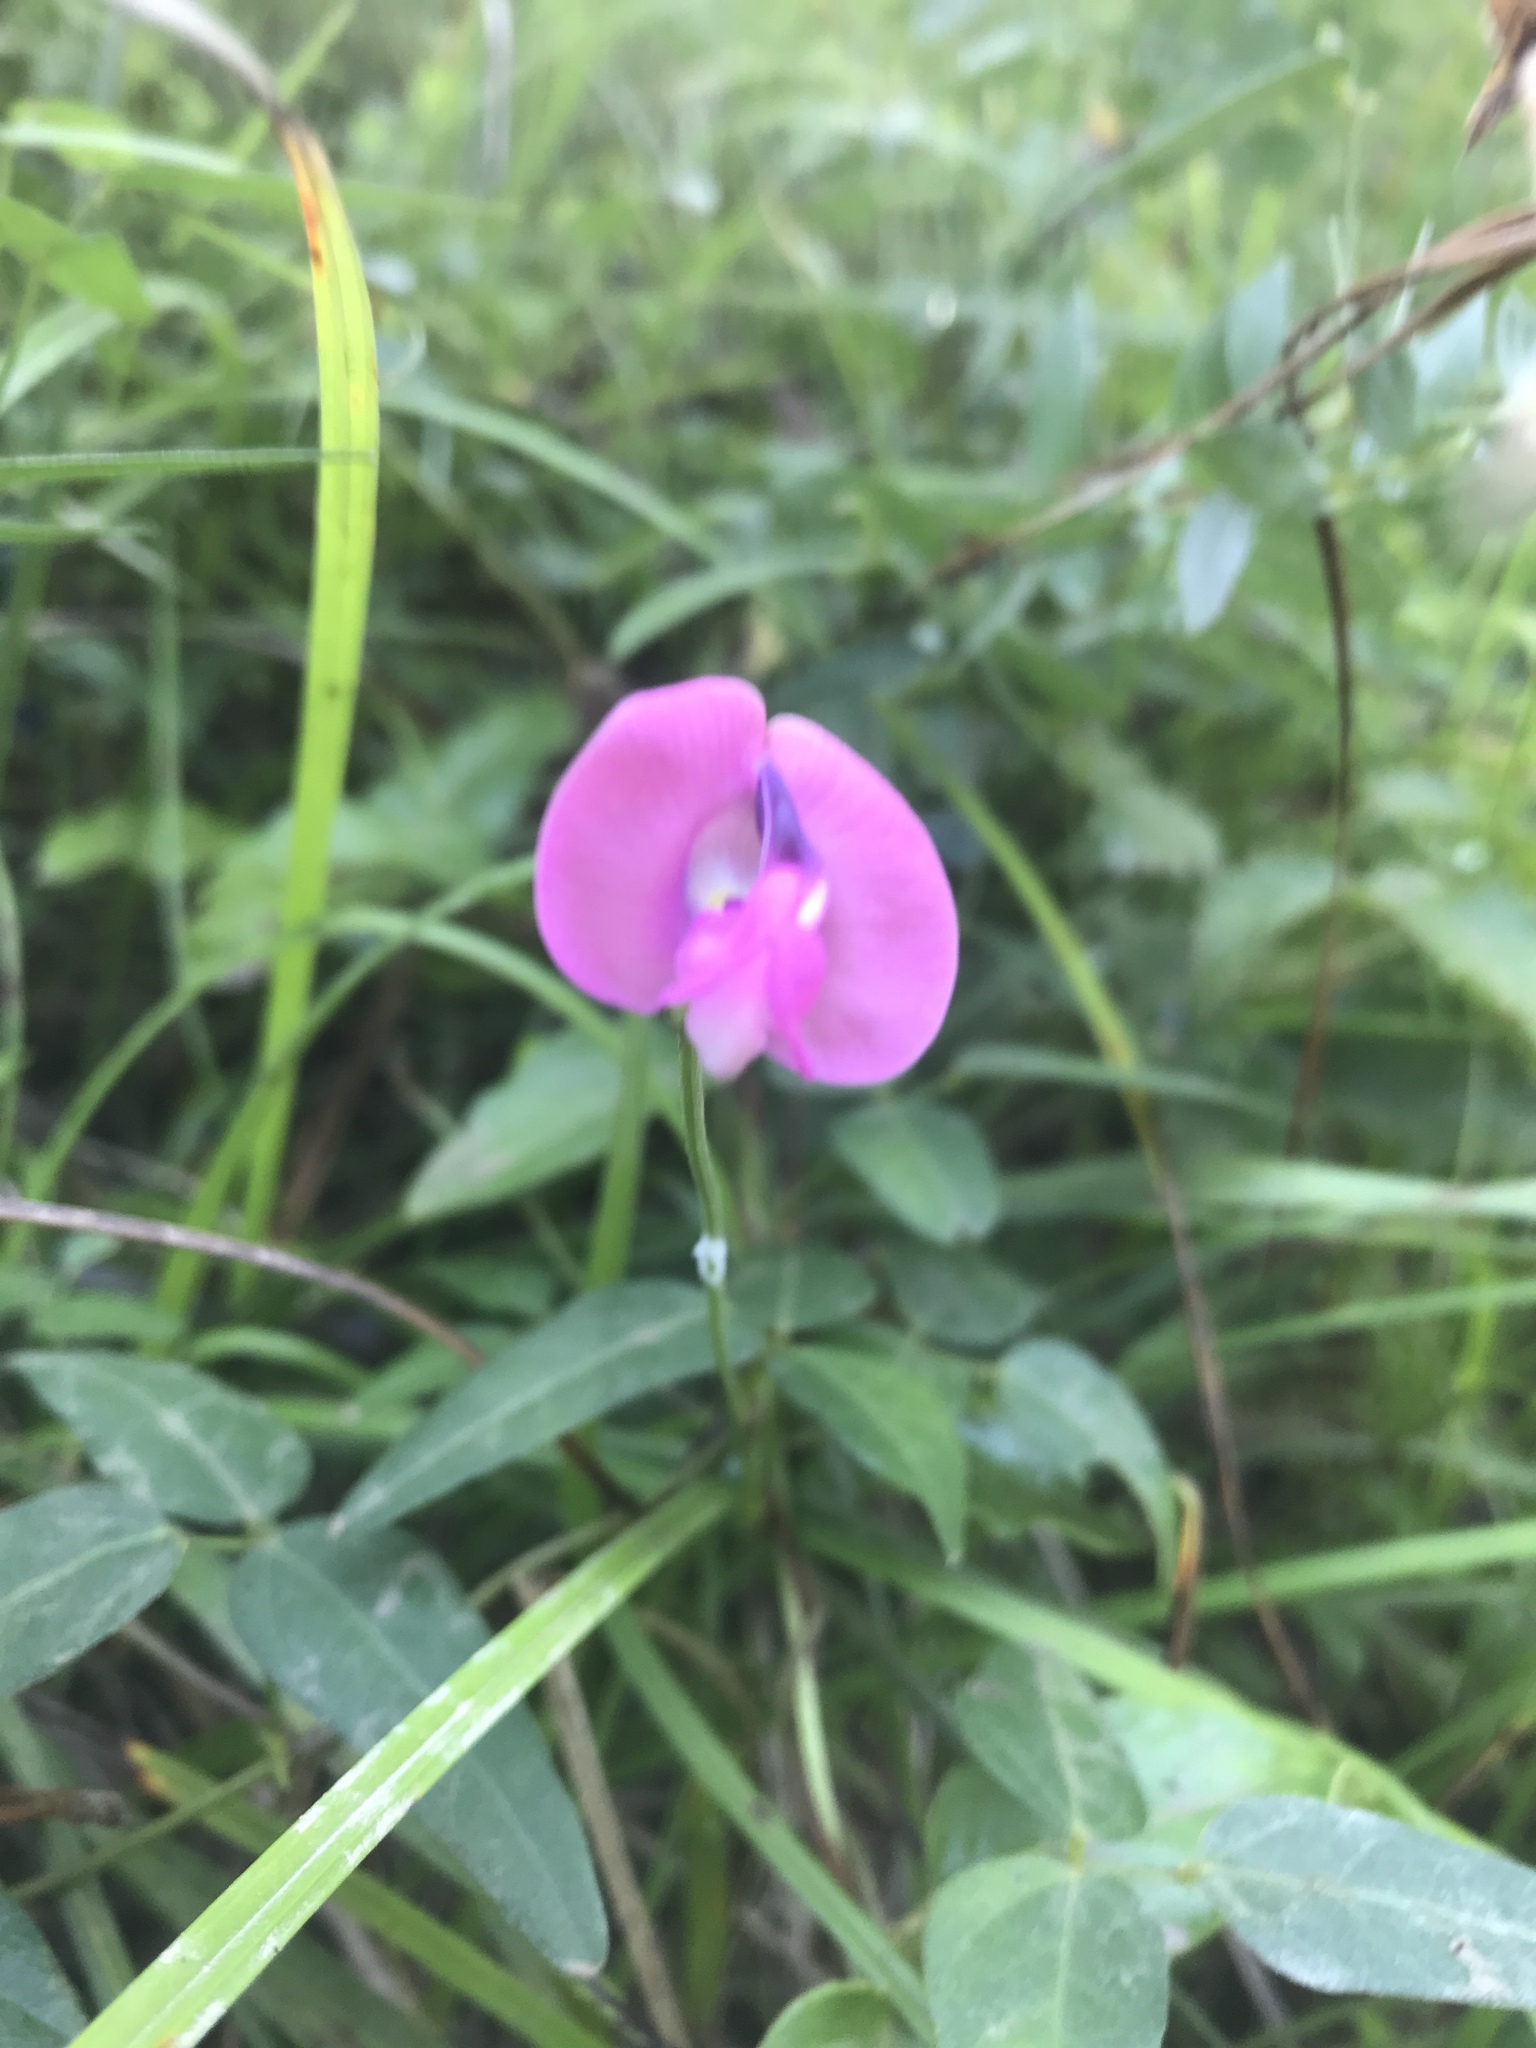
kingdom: Plantae
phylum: Tracheophyta
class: Magnoliopsida
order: Fabales
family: Fabaceae
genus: Strophostyles
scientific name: Strophostyles umbellata
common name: Perennial wild bean
